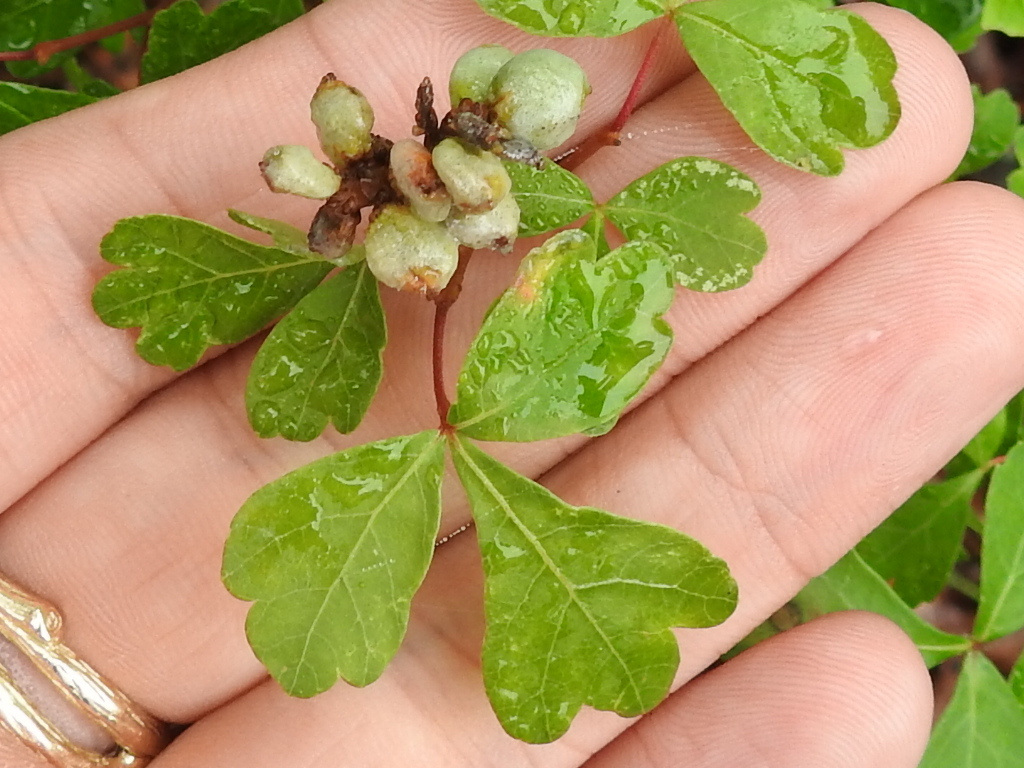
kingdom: Plantae
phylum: Tracheophyta
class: Magnoliopsida
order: Sapindales
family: Anacardiaceae
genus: Rhus
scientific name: Rhus aromatica
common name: Aromatic sumac
